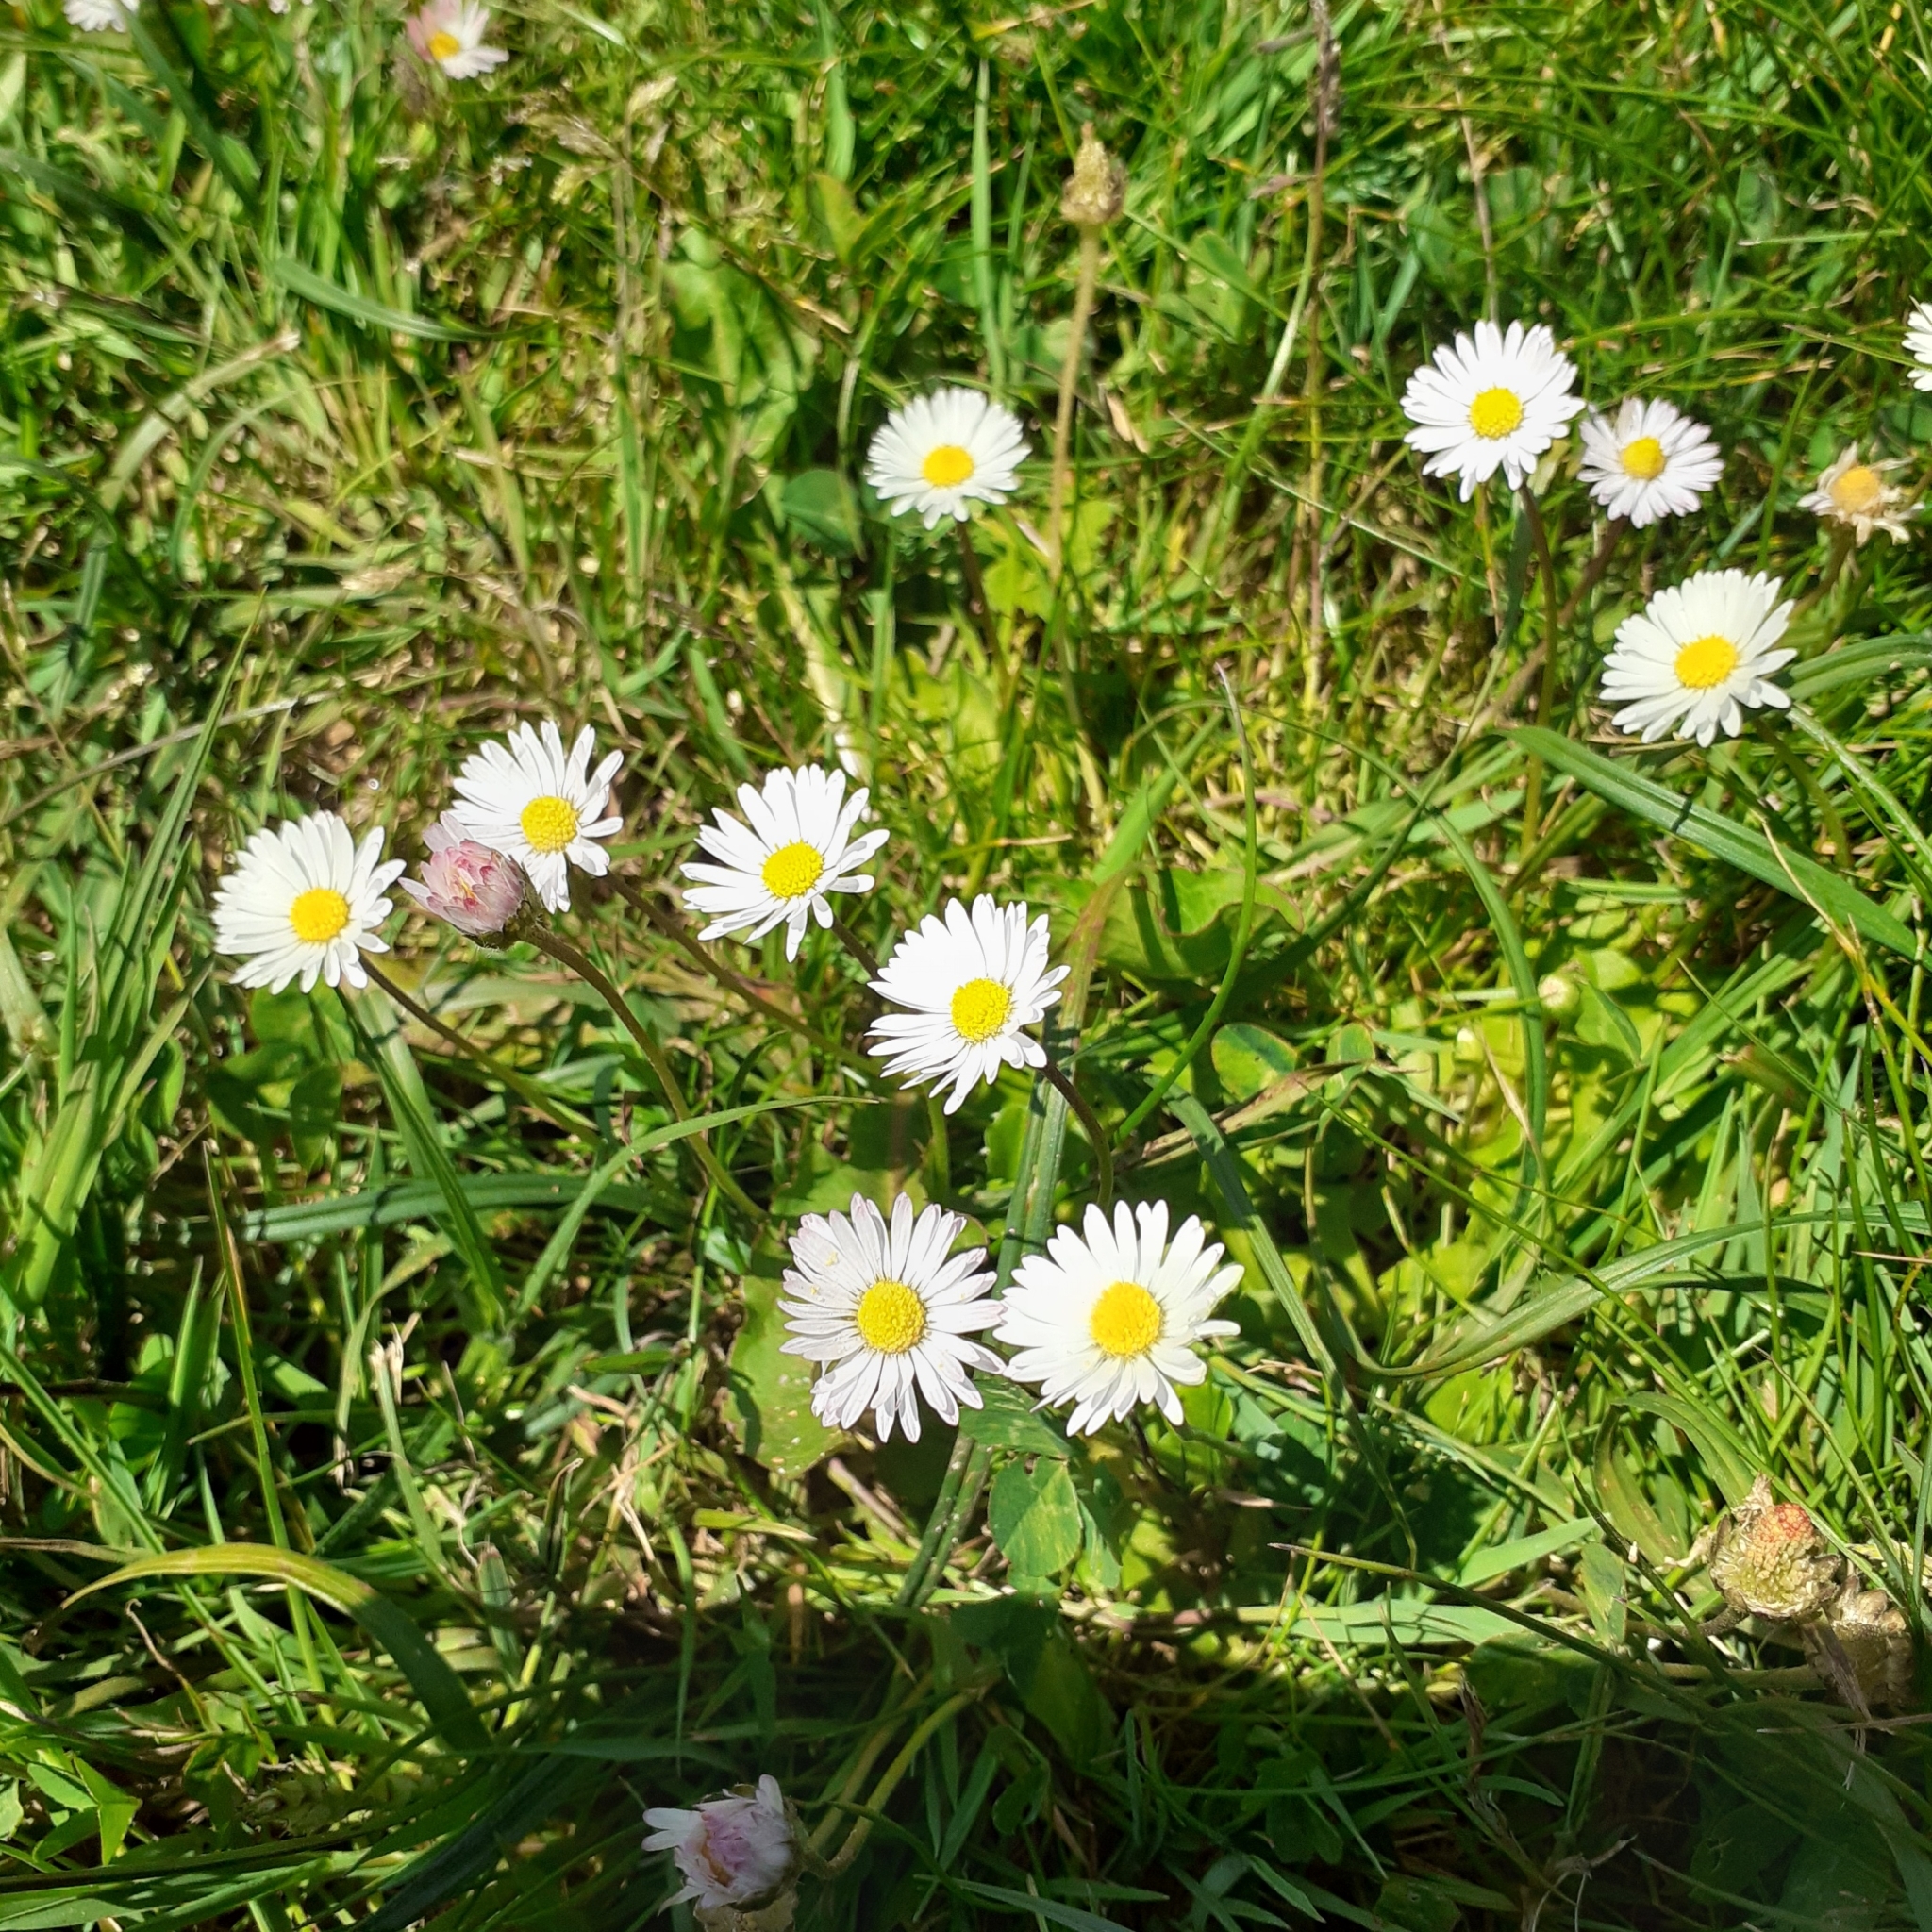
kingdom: Plantae
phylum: Tracheophyta
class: Magnoliopsida
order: Asterales
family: Asteraceae
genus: Bellis
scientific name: Bellis perennis
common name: Lawndaisy
